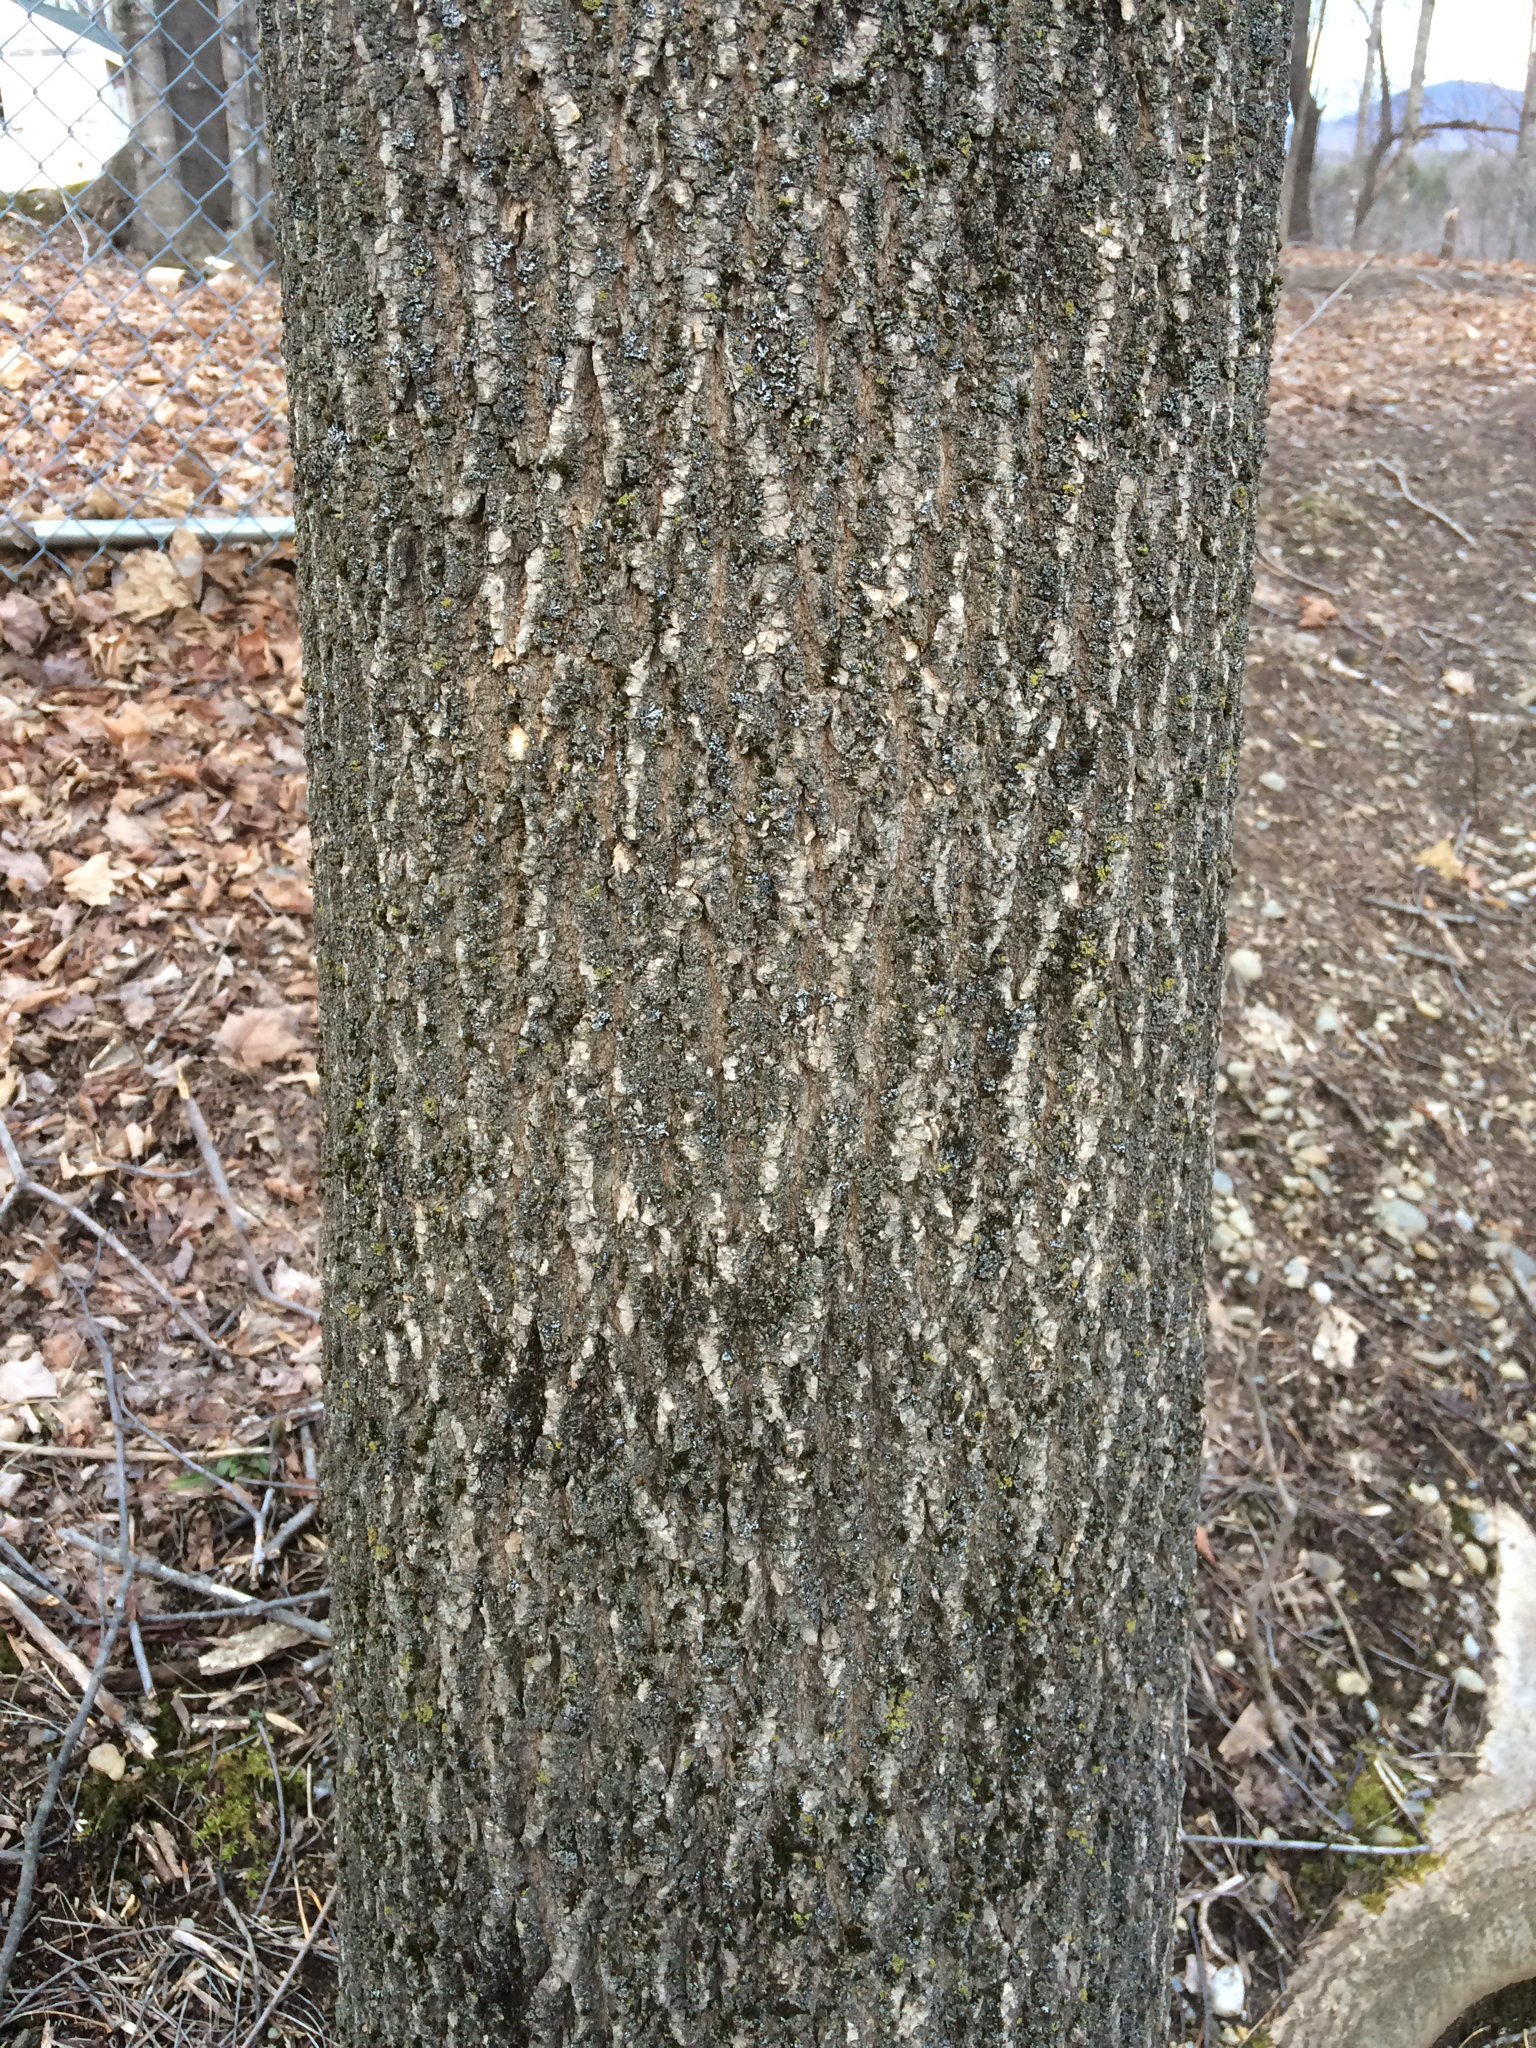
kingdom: Plantae
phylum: Tracheophyta
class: Magnoliopsida
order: Lamiales
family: Oleaceae
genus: Fraxinus
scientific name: Fraxinus americana
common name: White ash
